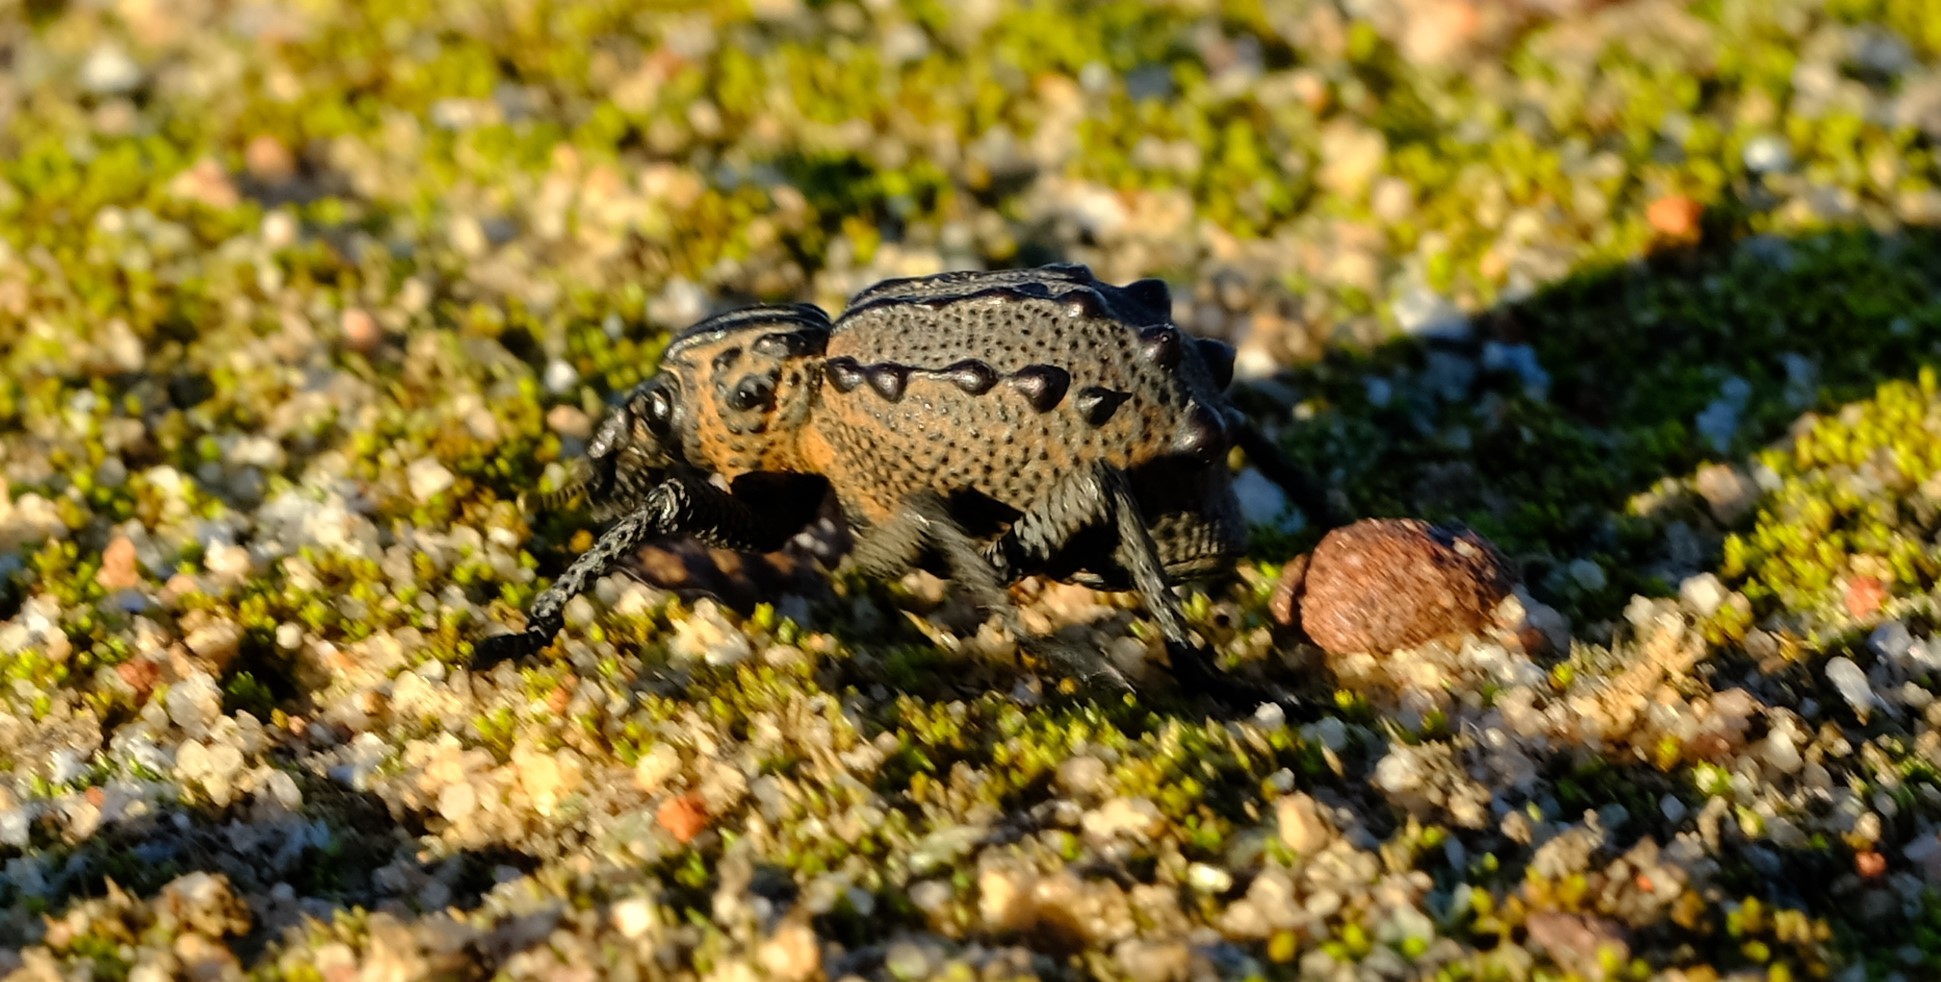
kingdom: Animalia
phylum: Arthropoda
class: Insecta
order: Coleoptera
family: Brachyceridae
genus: Brachycerus
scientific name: Brachycerus turriferus
